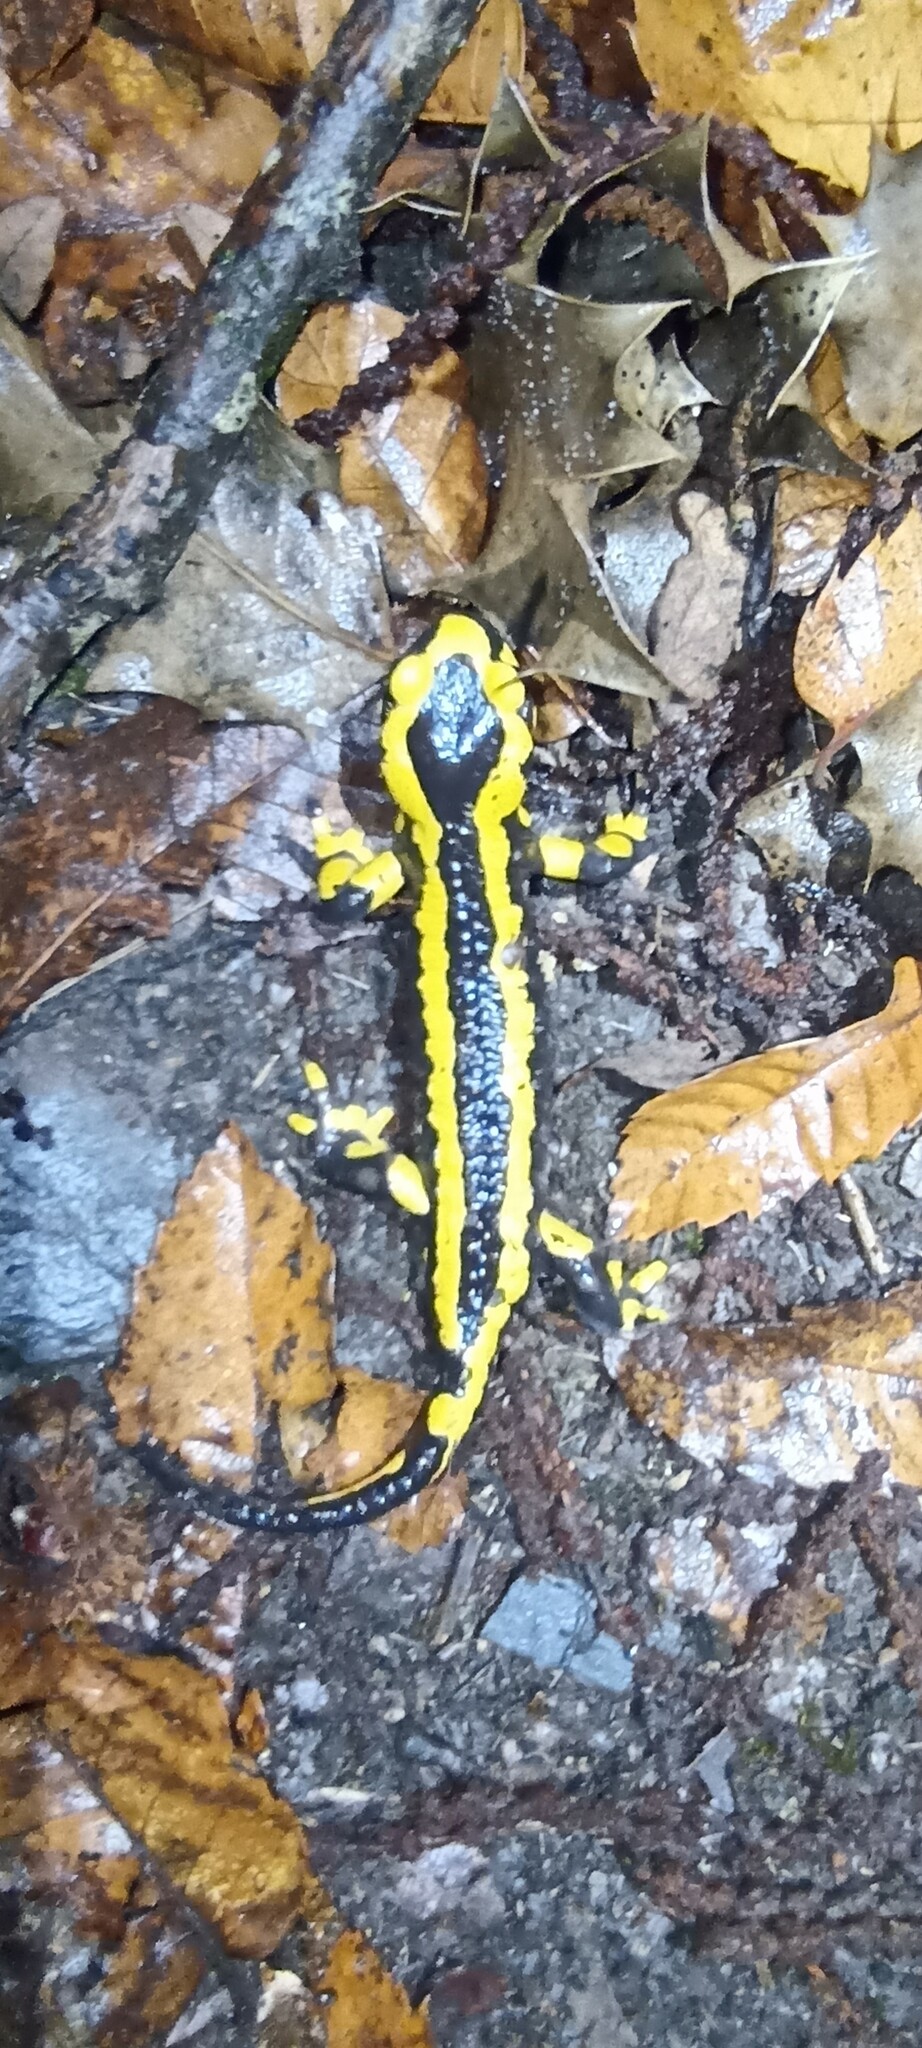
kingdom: Animalia
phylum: Chordata
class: Amphibia
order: Caudata
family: Salamandridae
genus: Salamandra
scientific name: Salamandra salamandra
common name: Fire salamander
